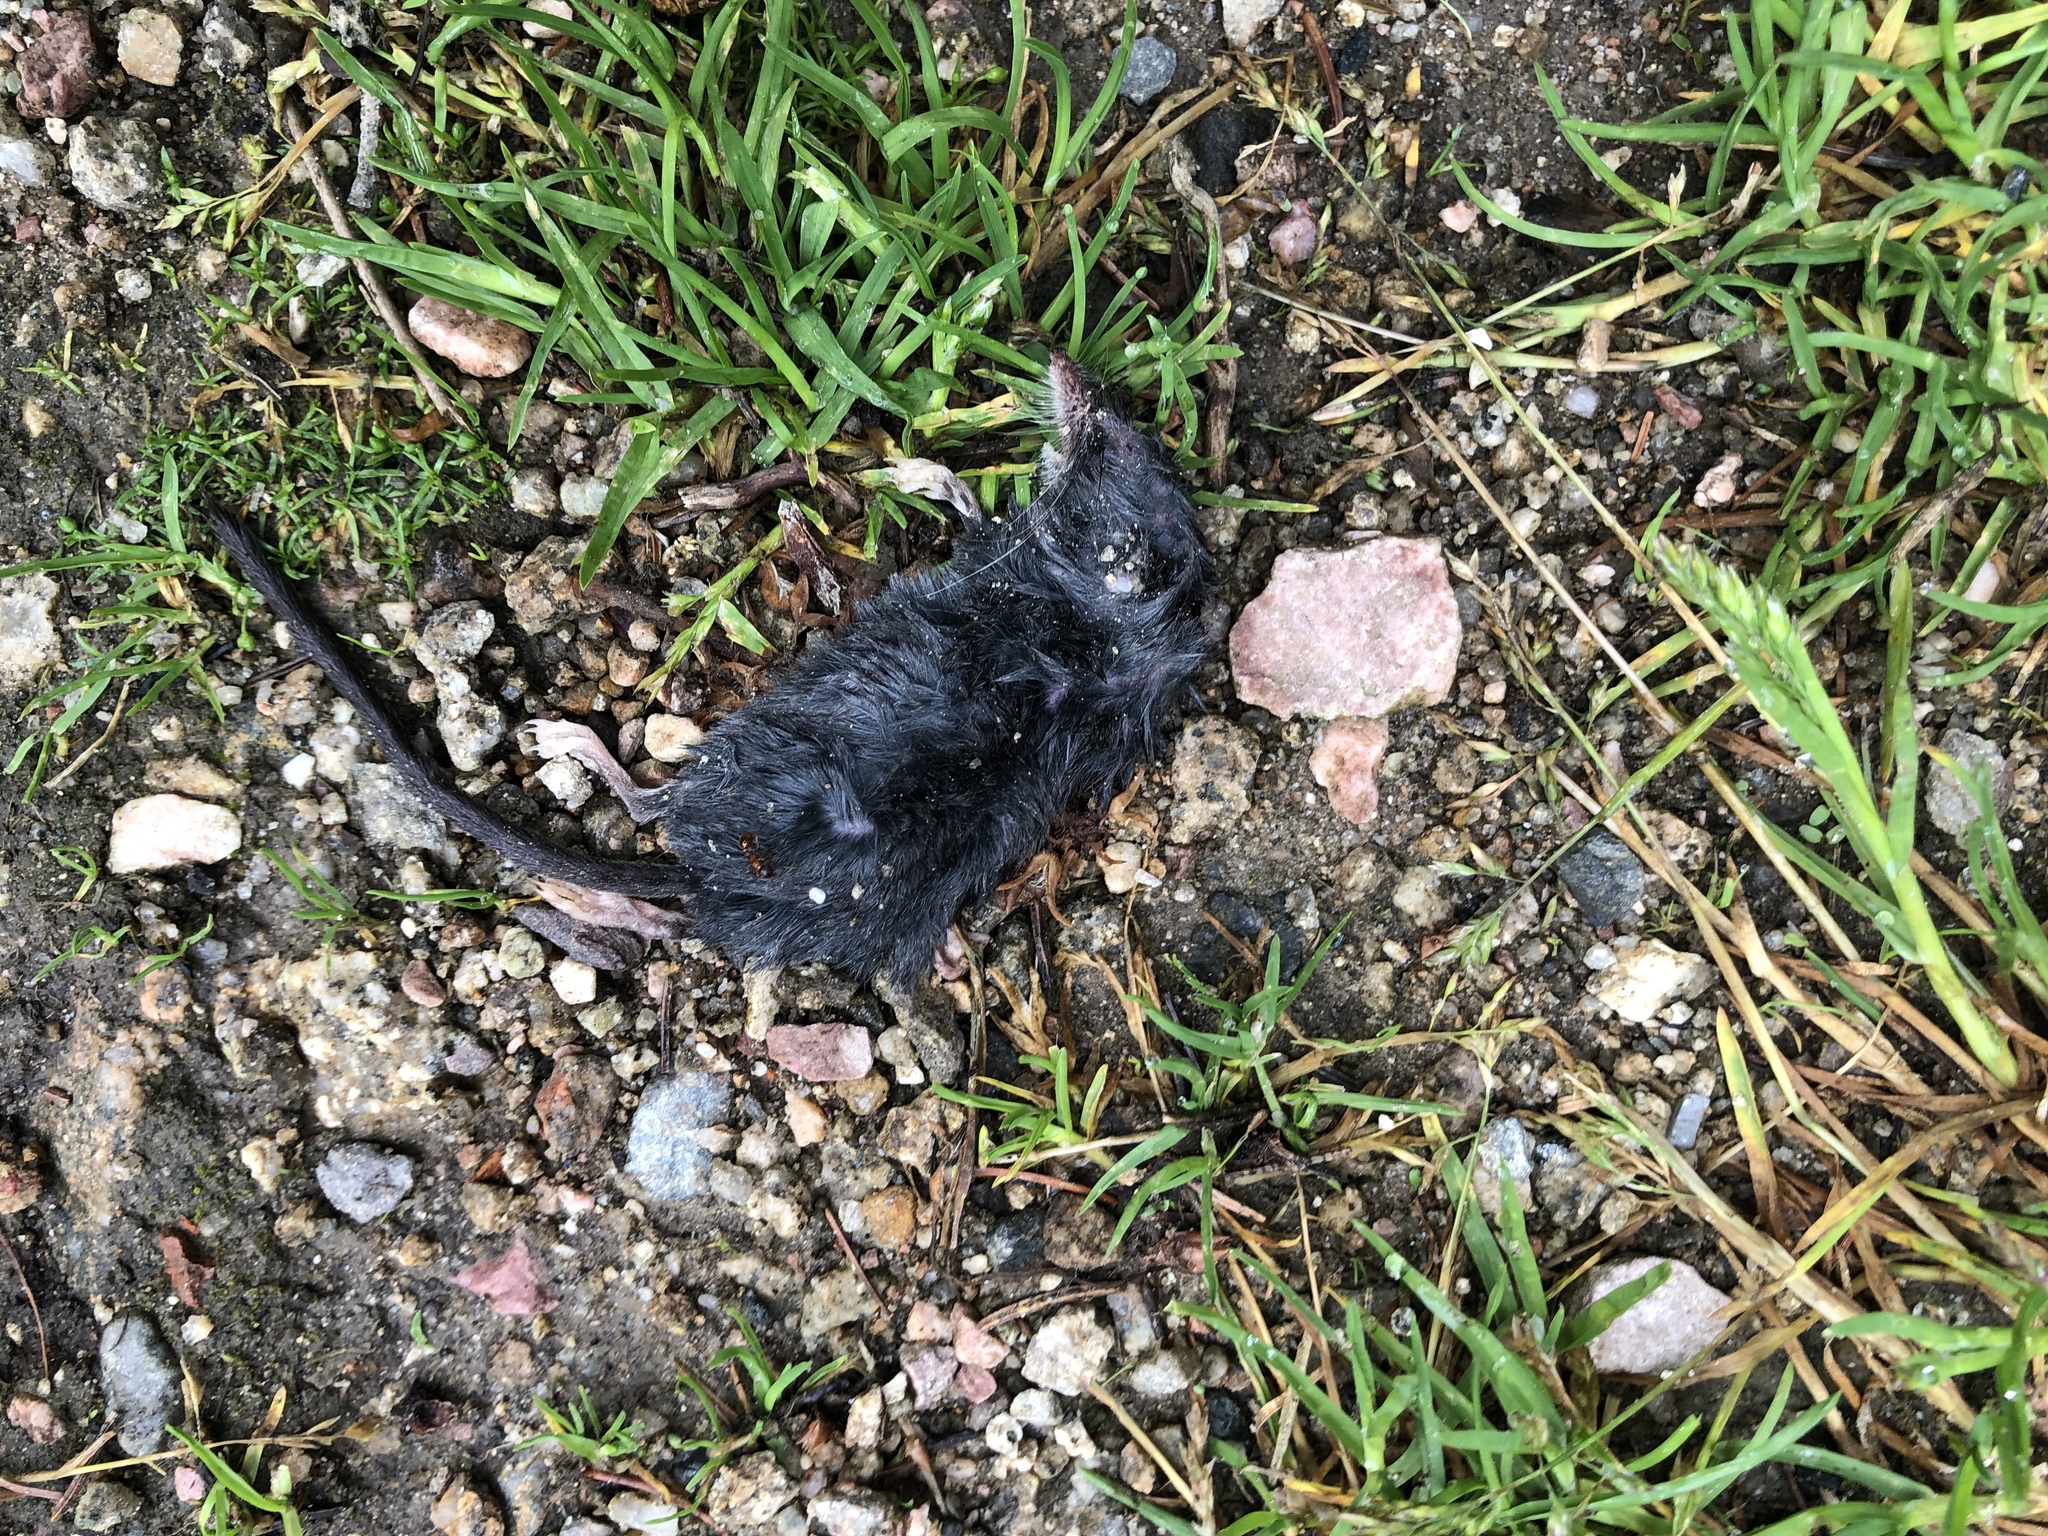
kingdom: Animalia
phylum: Chordata
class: Mammalia
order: Soricomorpha
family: Soricidae
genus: Sorex
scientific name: Sorex alpinus
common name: Alpine shrew
